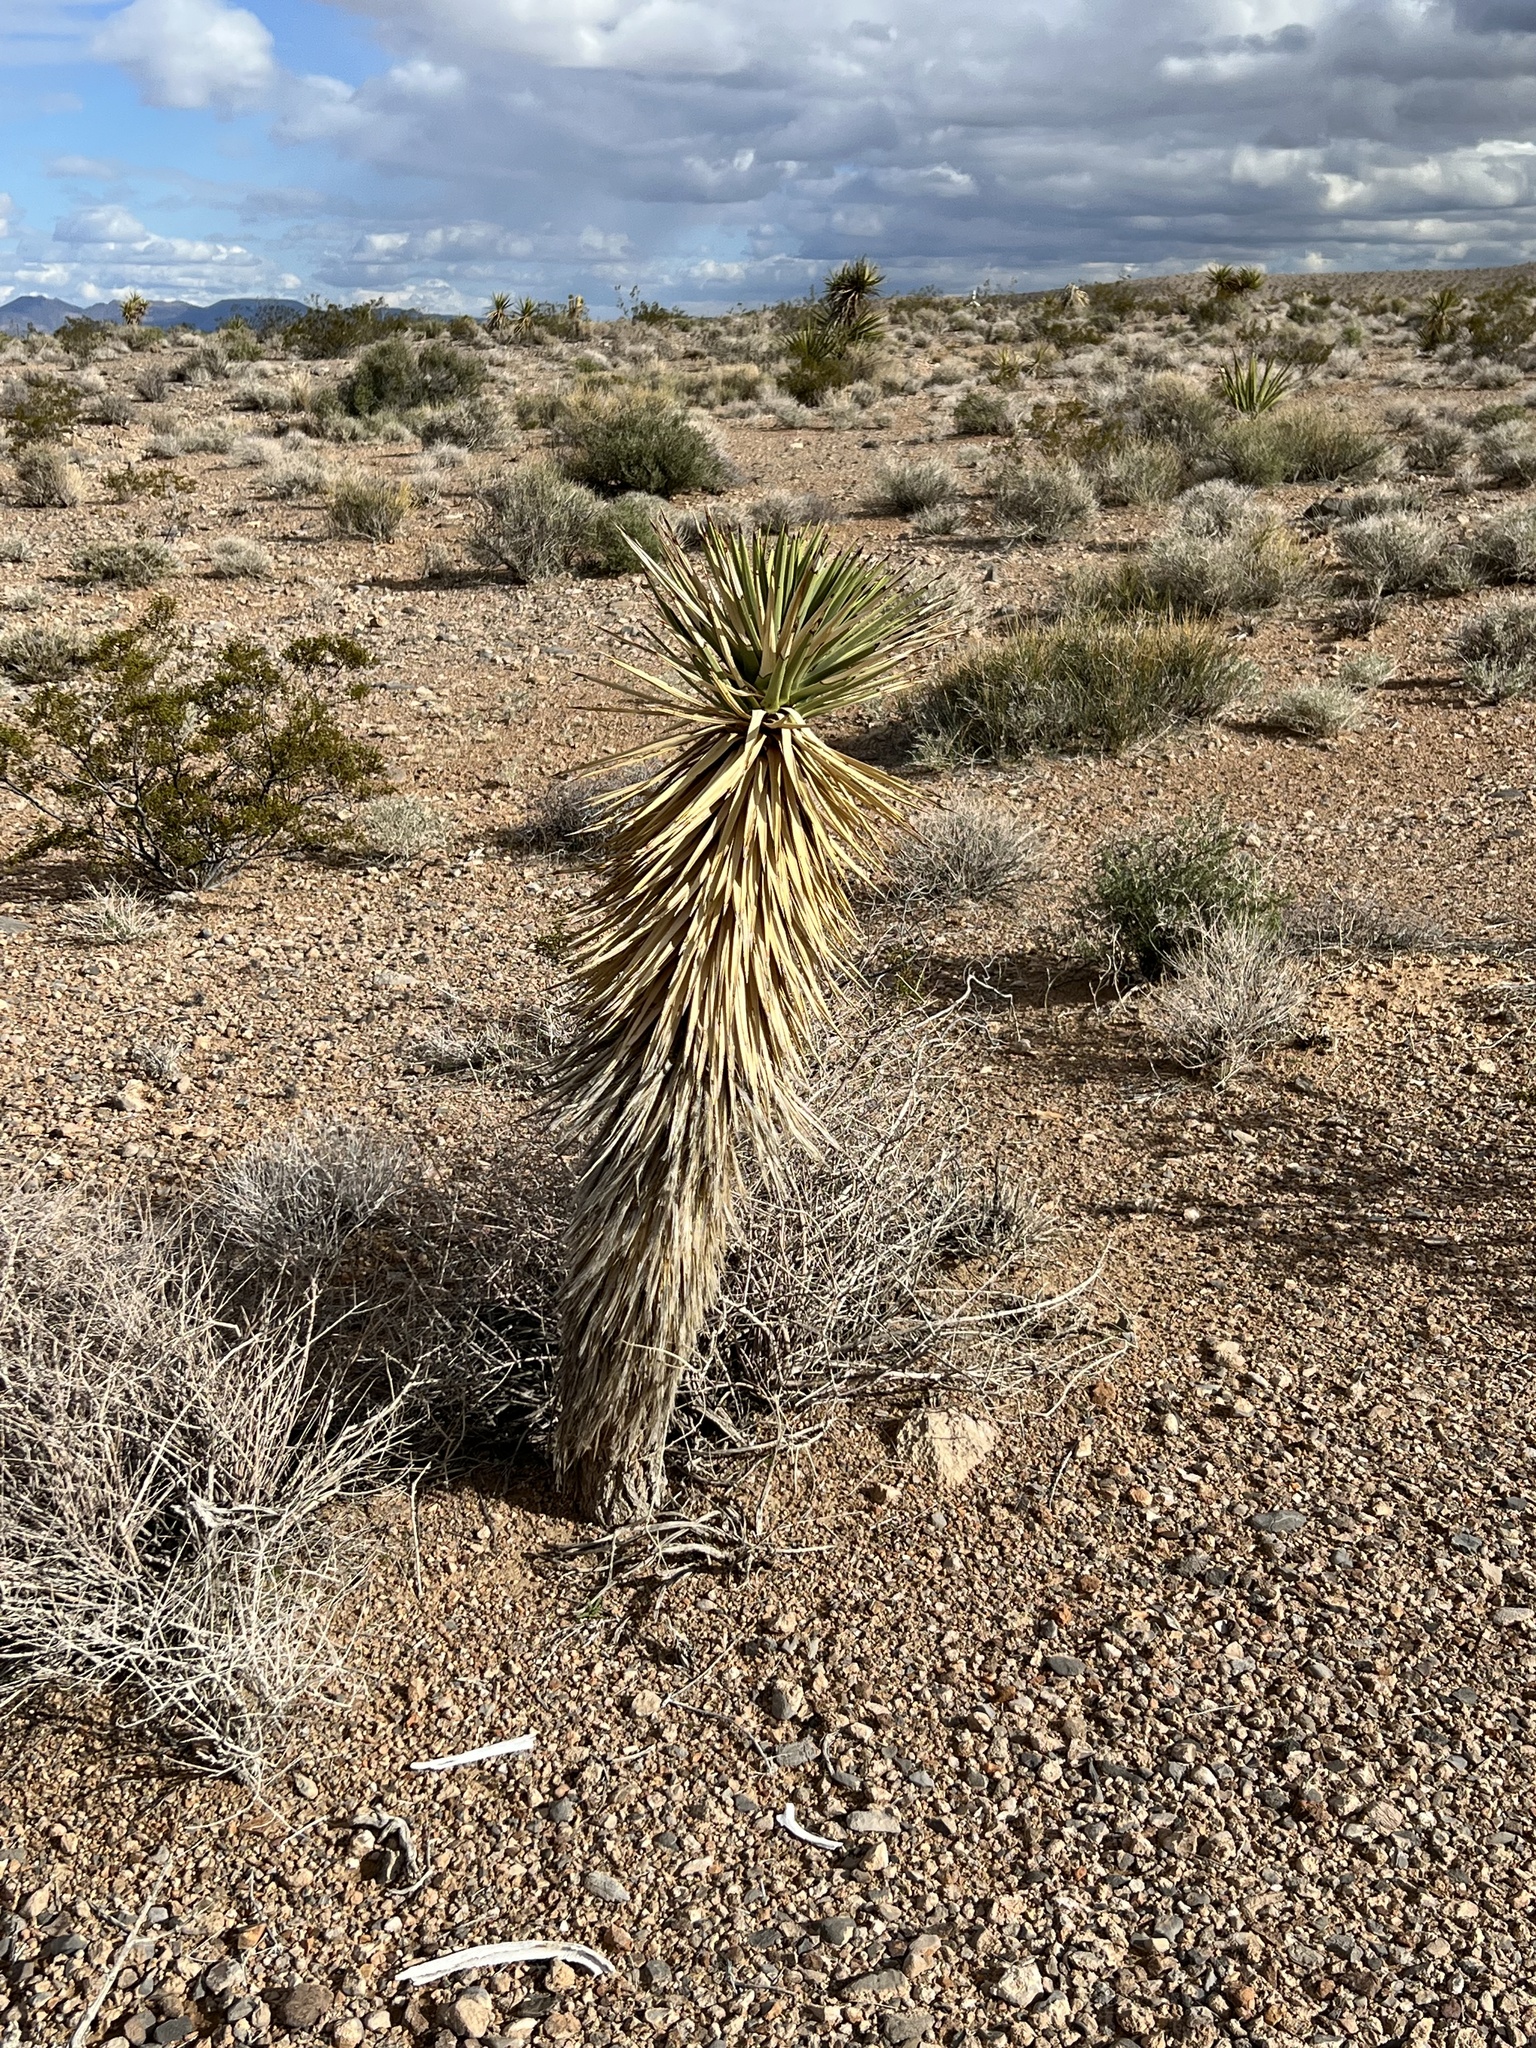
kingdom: Plantae
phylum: Tracheophyta
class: Liliopsida
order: Asparagales
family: Asparagaceae
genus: Yucca
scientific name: Yucca brevifolia
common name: Joshua tree
